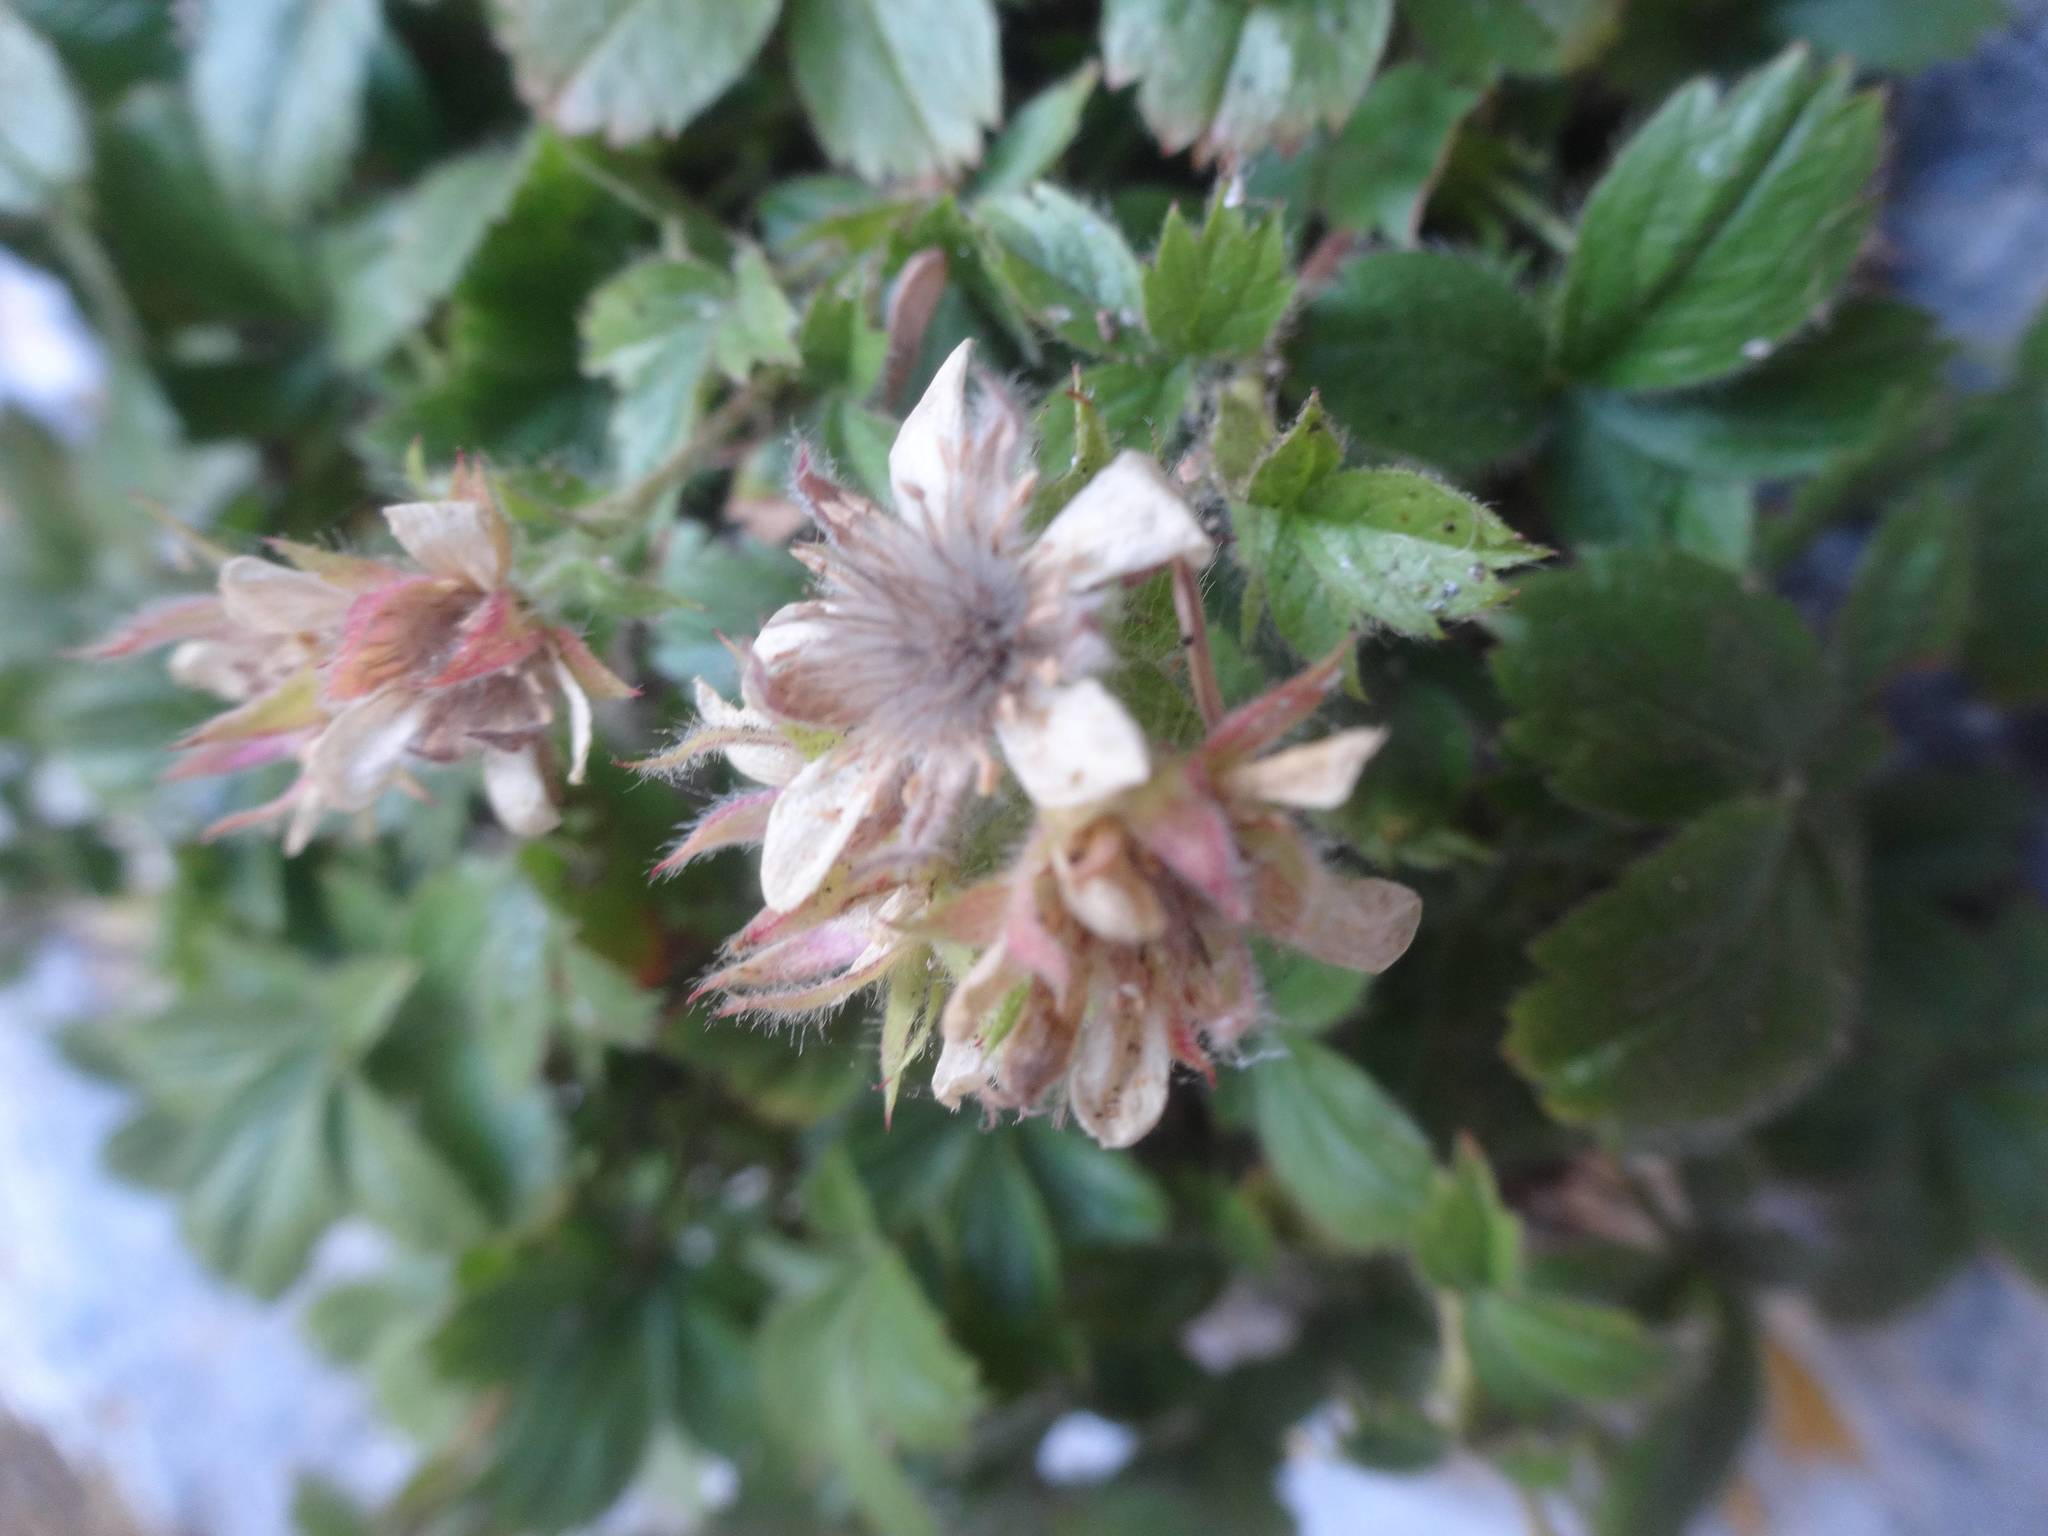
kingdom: Plantae
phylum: Tracheophyta
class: Magnoliopsida
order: Rosales
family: Rosaceae
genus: Potentilla
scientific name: Potentilla caulescens
